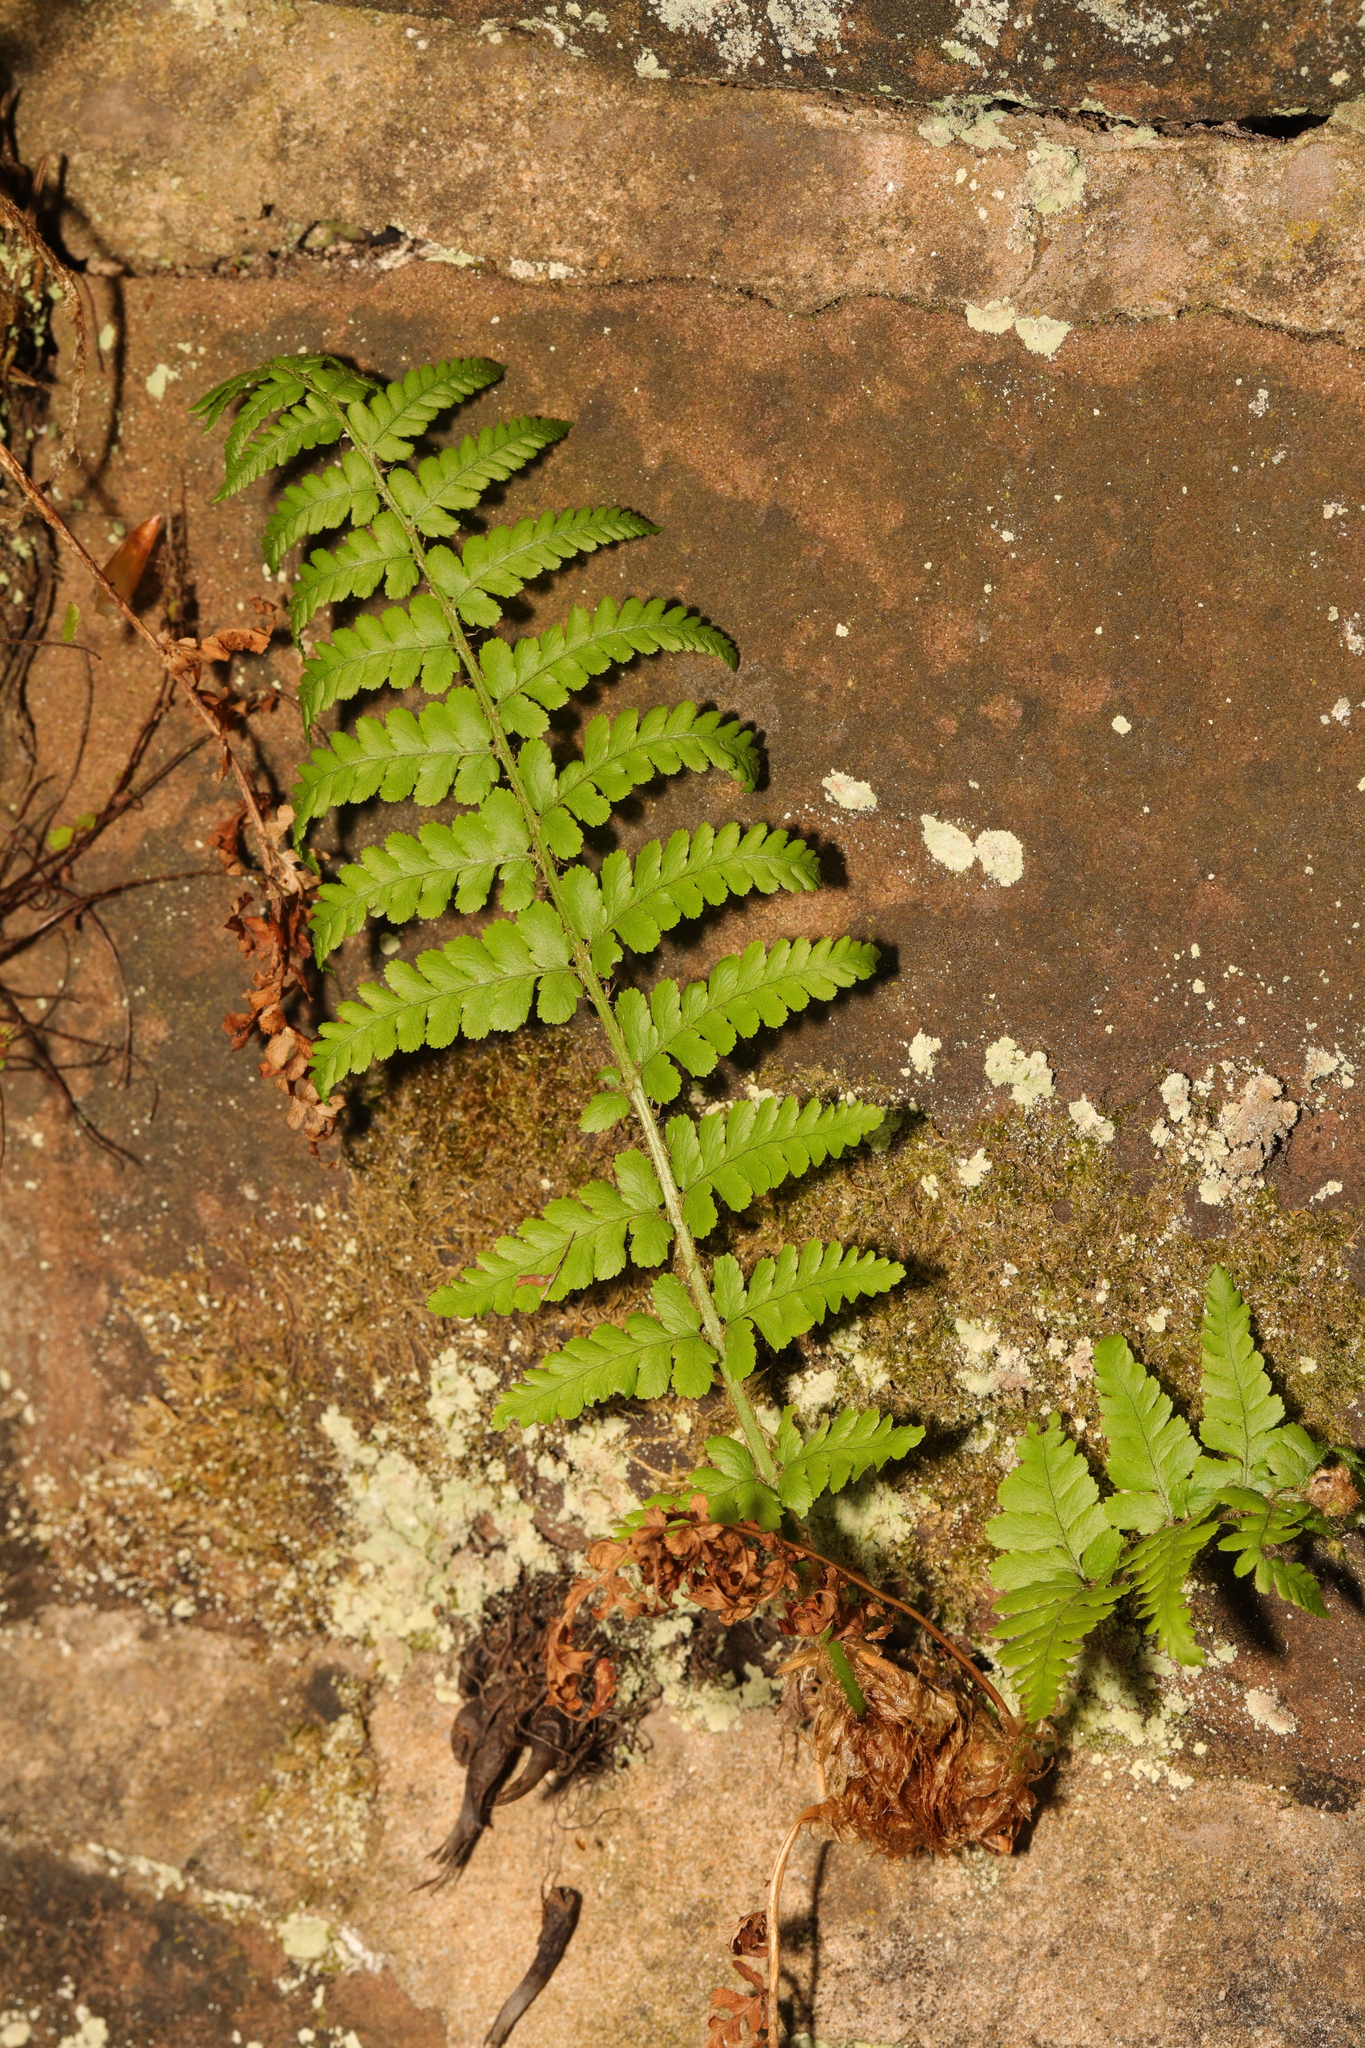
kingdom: Plantae
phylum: Tracheophyta
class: Polypodiopsida
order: Polypodiales
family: Dryopteridaceae
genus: Dryopteris
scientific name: Dryopteris filix-mas
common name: Male fern
